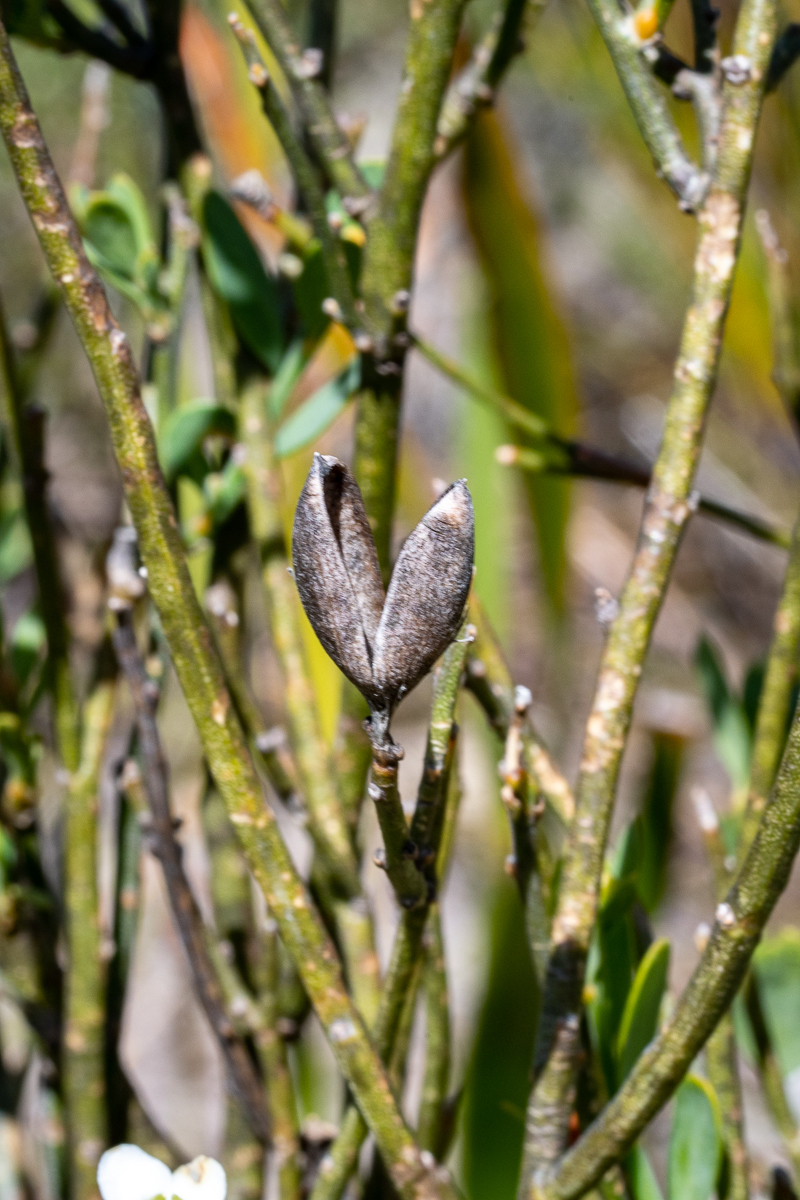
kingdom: Plantae
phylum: Tracheophyta
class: Magnoliopsida
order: Solanales
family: Montiniaceae
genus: Montinia
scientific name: Montinia caryophyllacea
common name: Wild clove-bush
